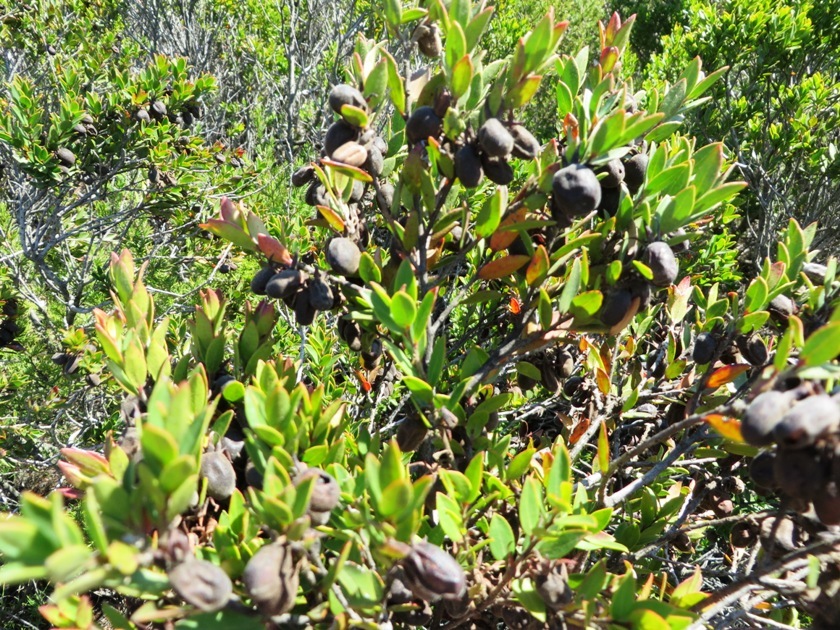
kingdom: Plantae
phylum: Tracheophyta
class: Magnoliopsida
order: Ericales
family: Ebenaceae
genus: Diospyros
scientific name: Diospyros glabra
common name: Fynbos star apple
